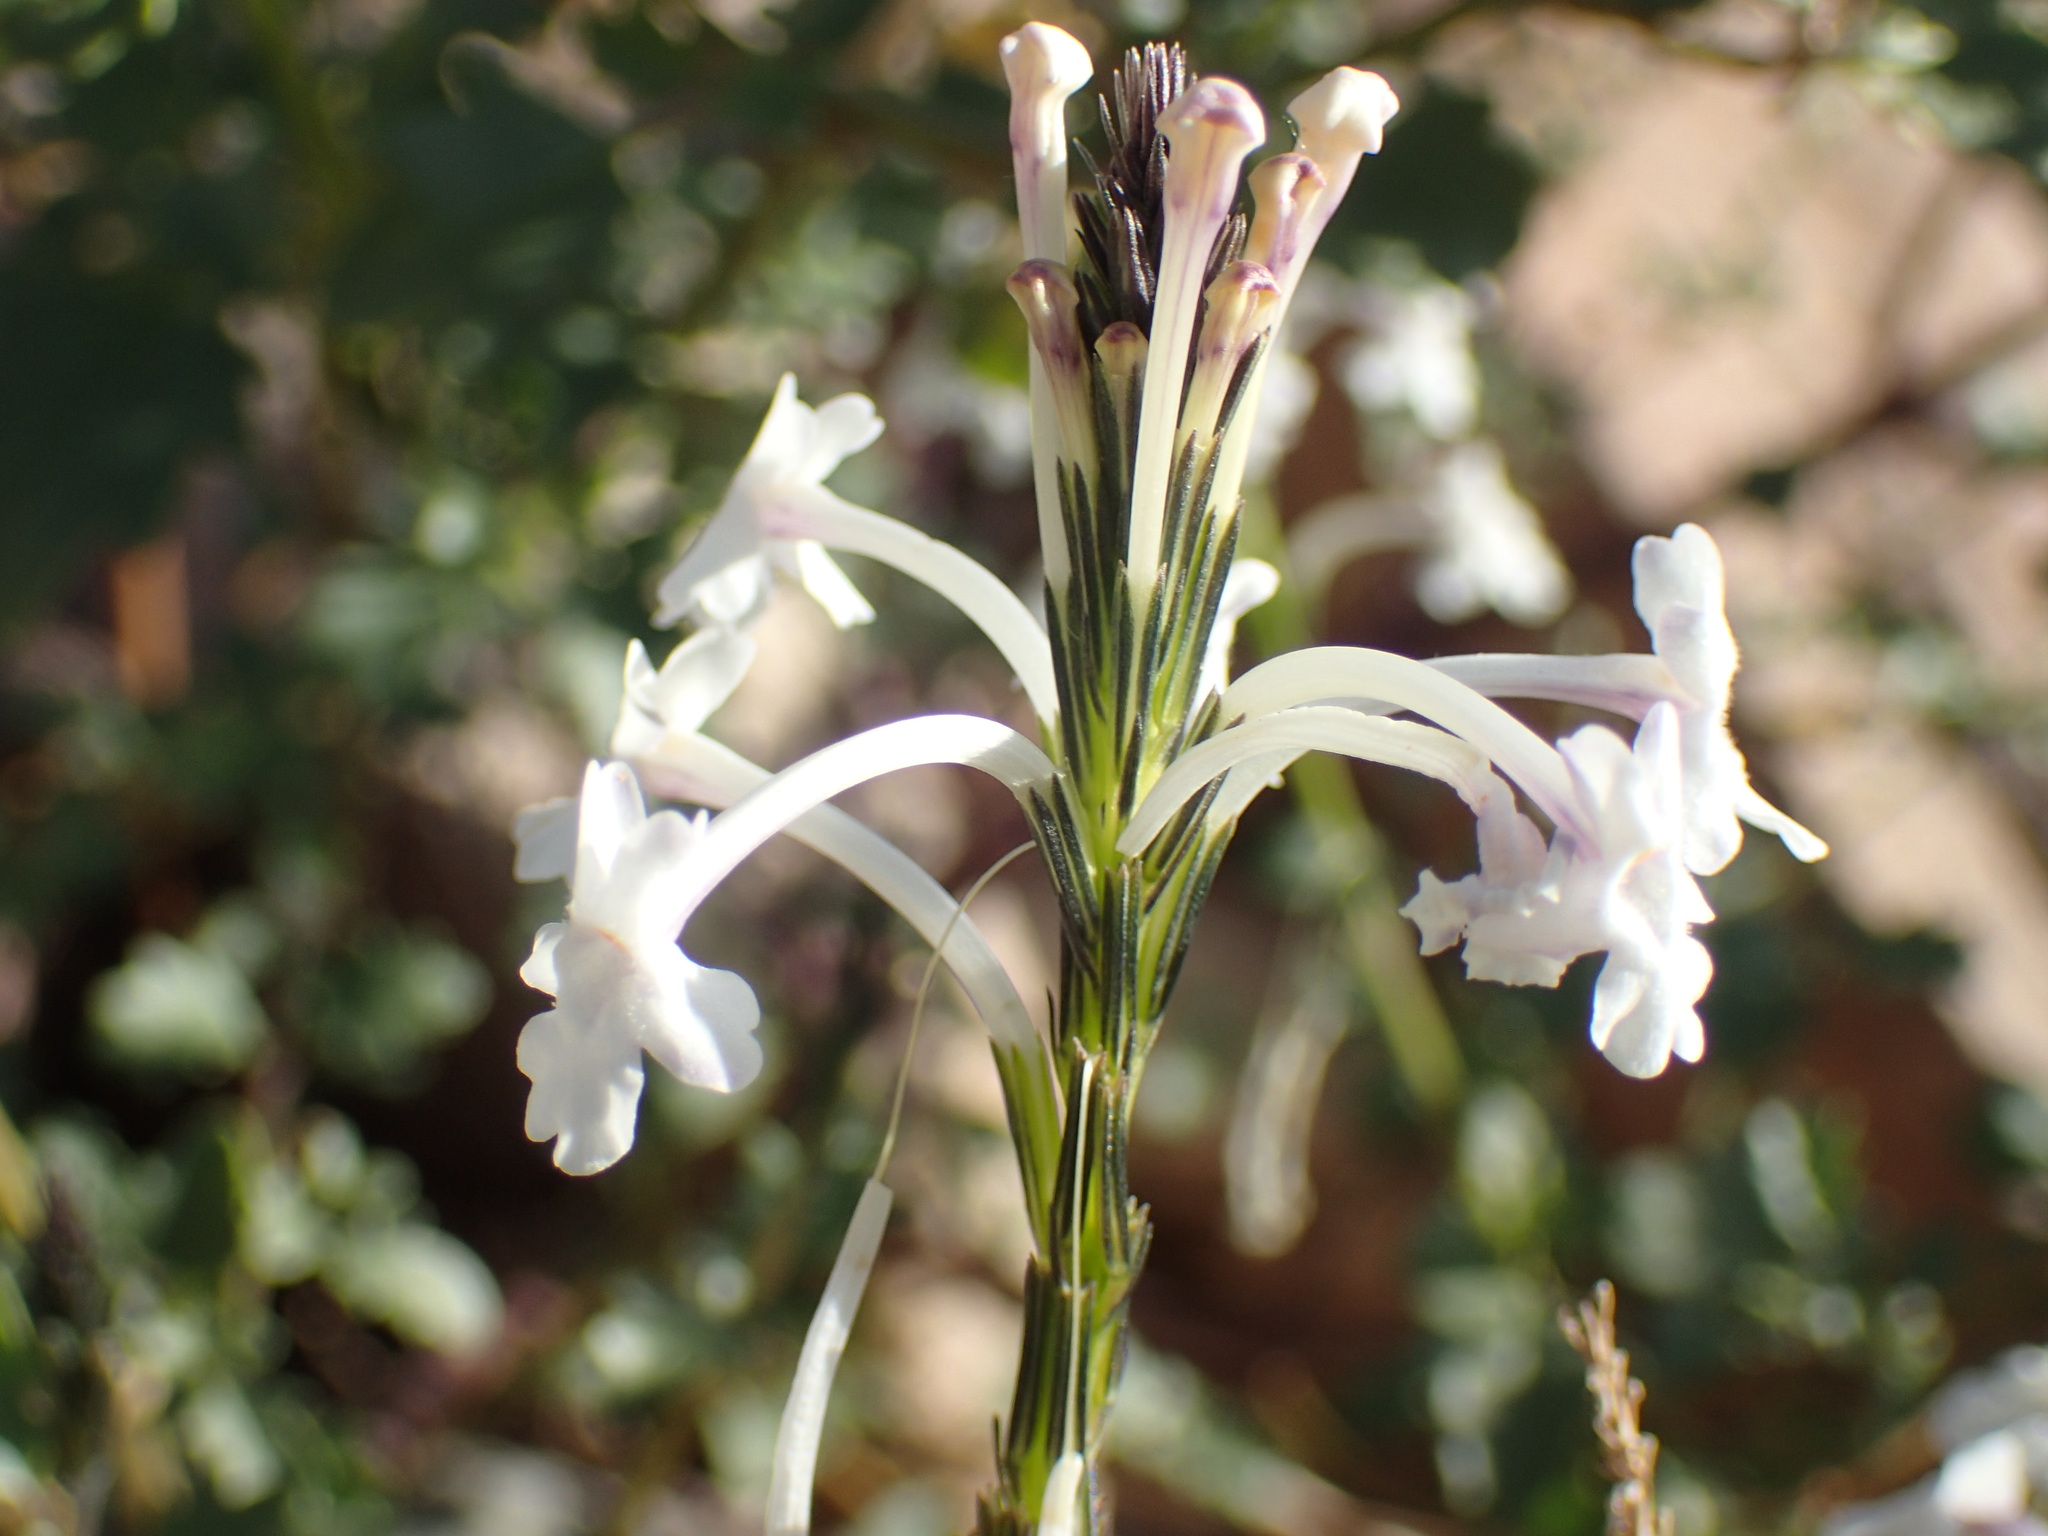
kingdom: Plantae
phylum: Tracheophyta
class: Magnoliopsida
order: Lamiales
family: Verbenaceae
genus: Chascanum
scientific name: Chascanum garipense
